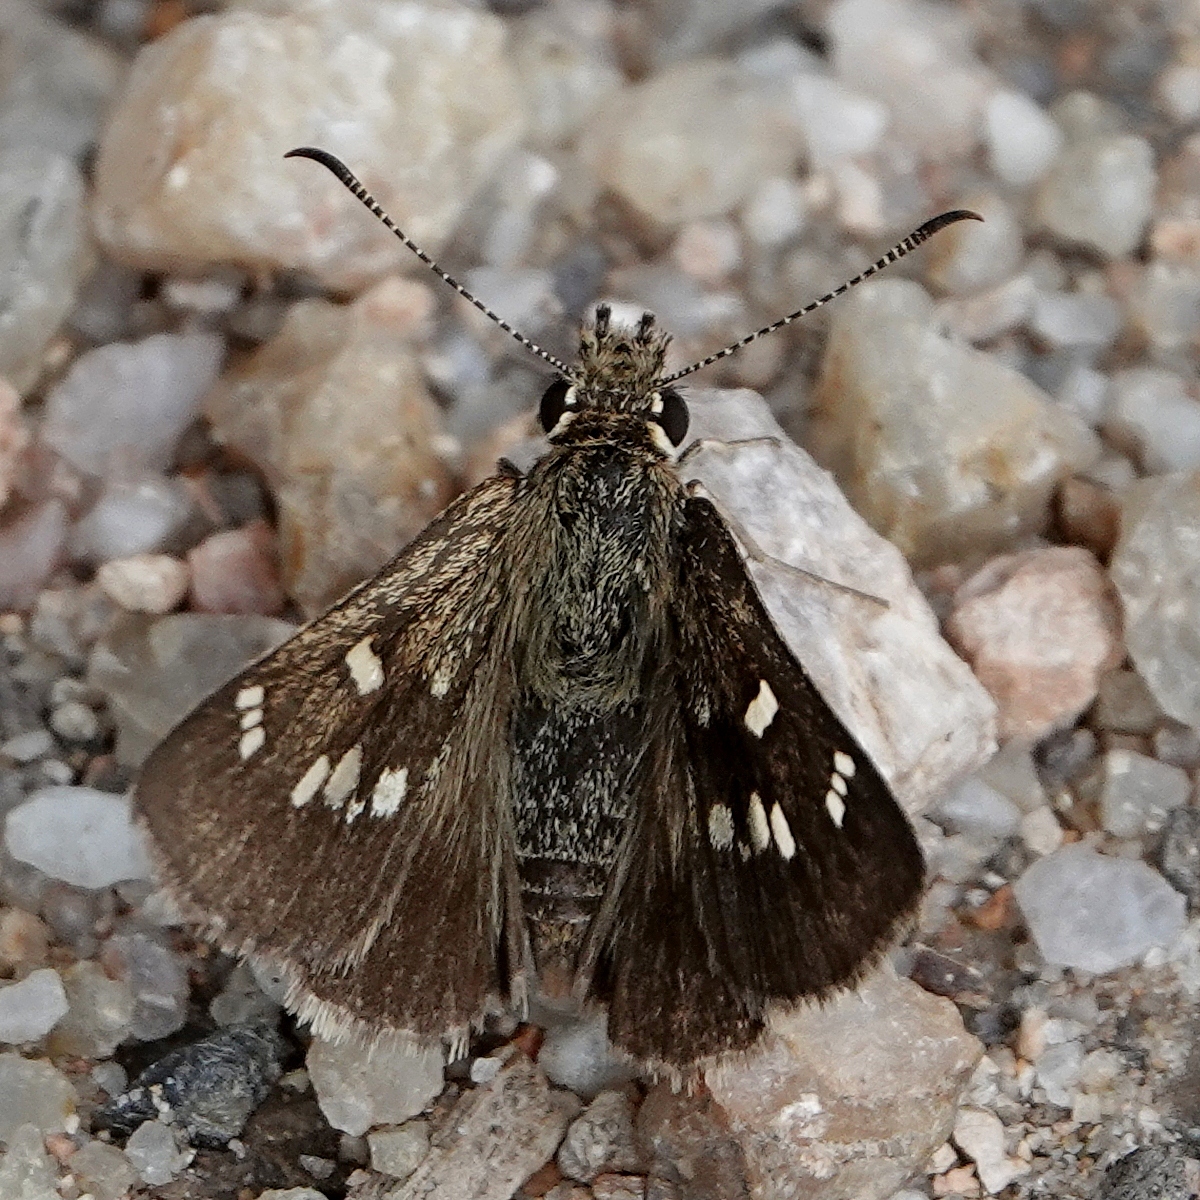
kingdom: Animalia
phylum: Arthropoda
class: Insecta
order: Lepidoptera
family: Hesperiidae
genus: Toxidia
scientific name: Toxidia parvulus
